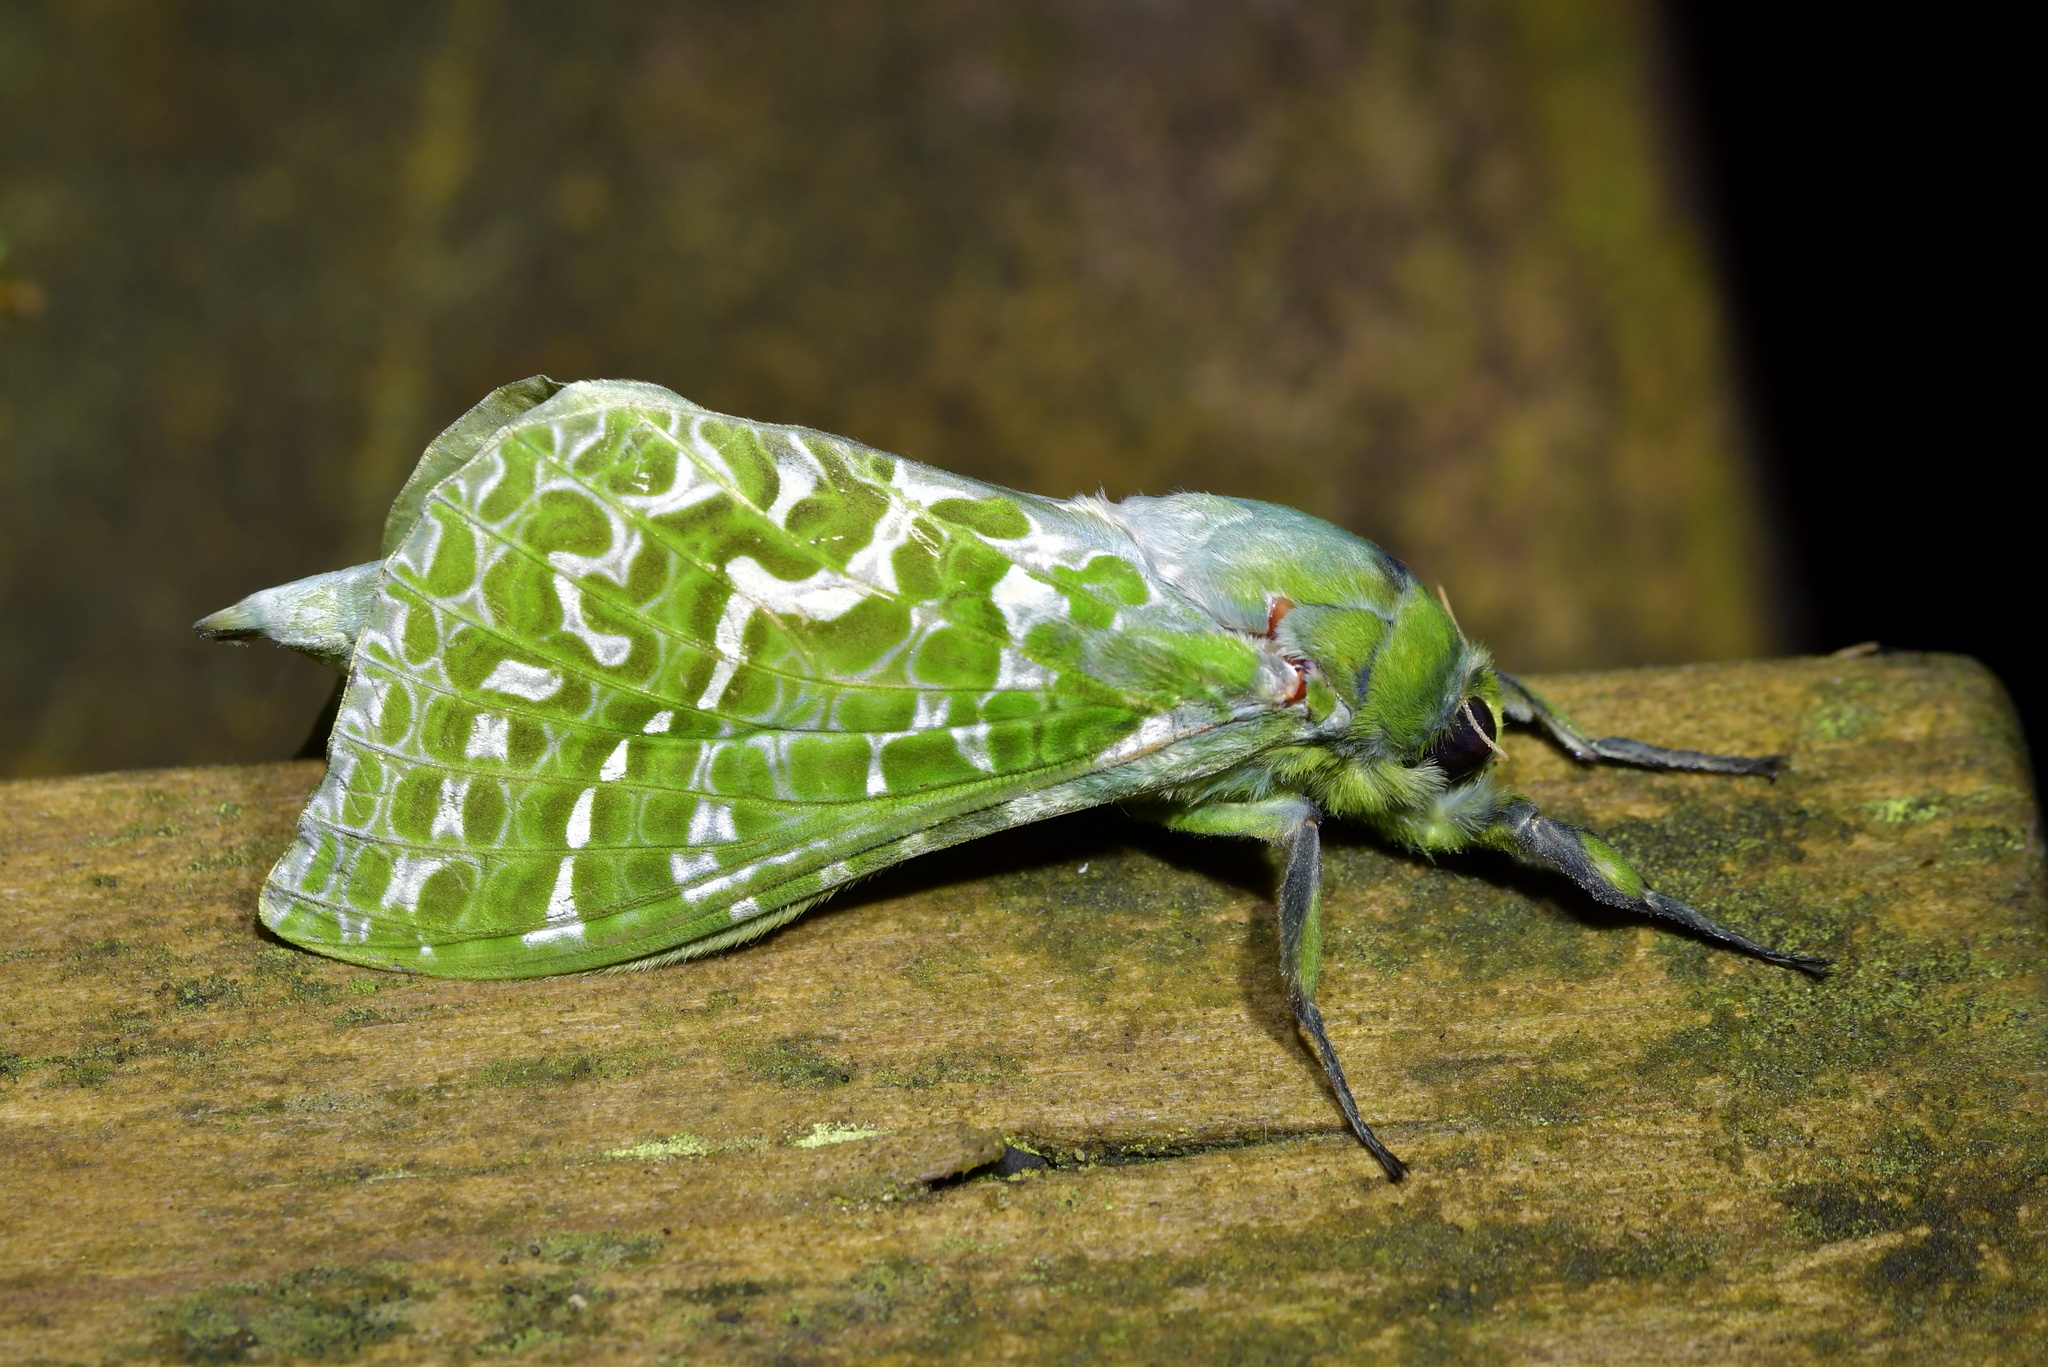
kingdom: Animalia
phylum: Arthropoda
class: Insecta
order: Lepidoptera
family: Hepialidae
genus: Aenetus
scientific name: Aenetus virescens
